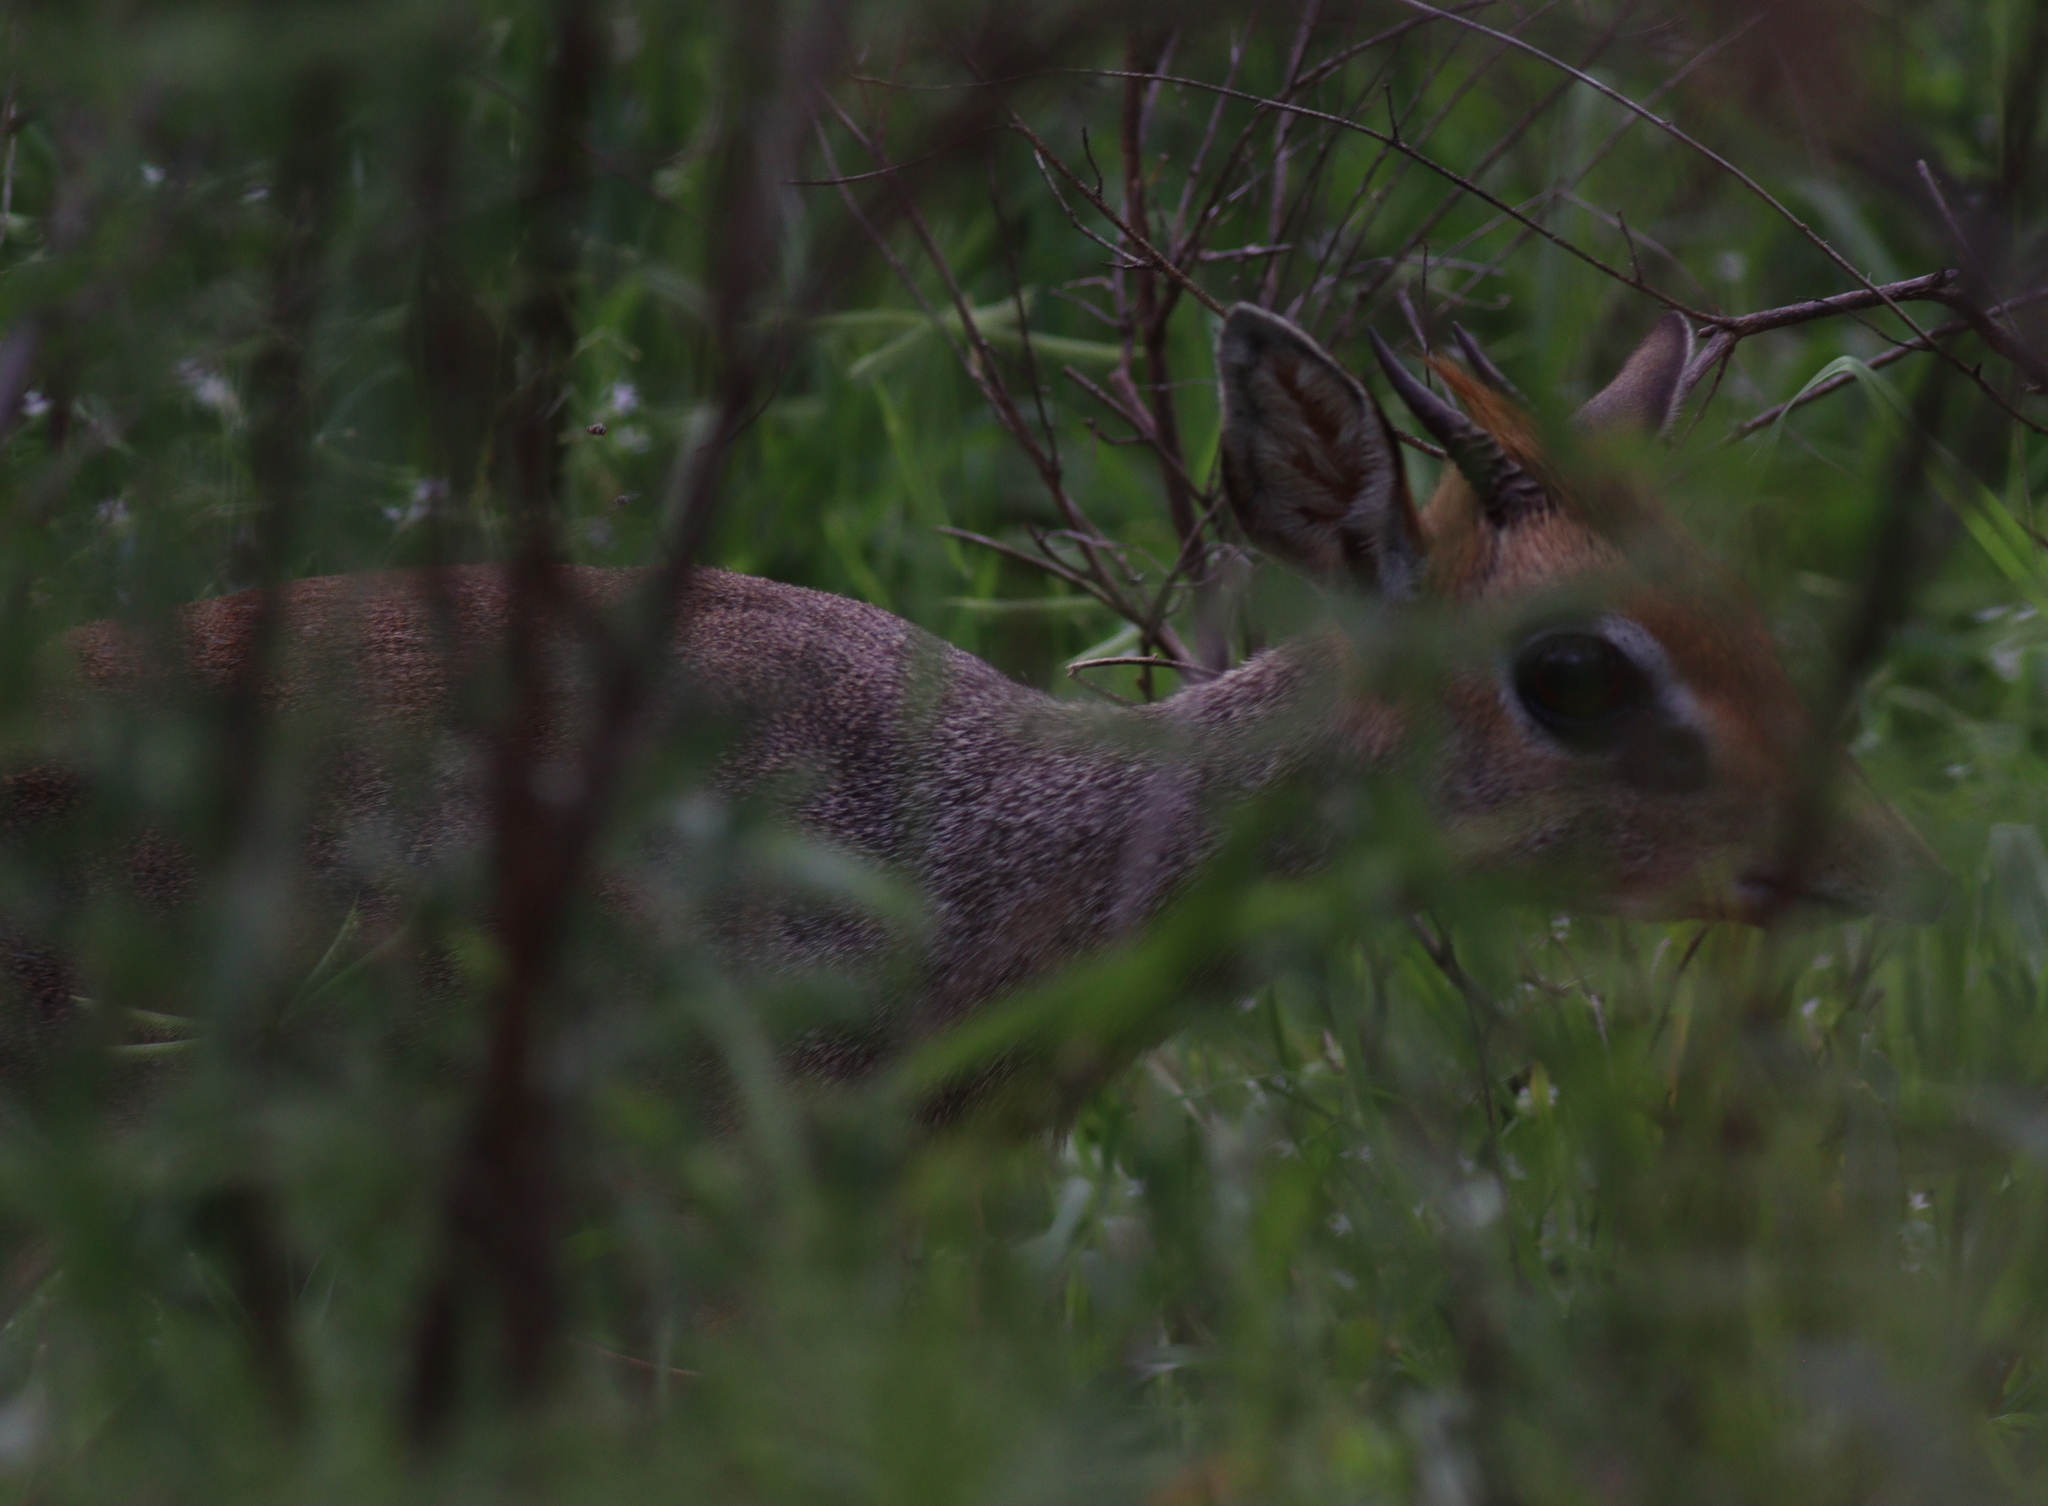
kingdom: Animalia
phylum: Chordata
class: Mammalia
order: Artiodactyla
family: Bovidae
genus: Madoqua
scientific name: Madoqua
